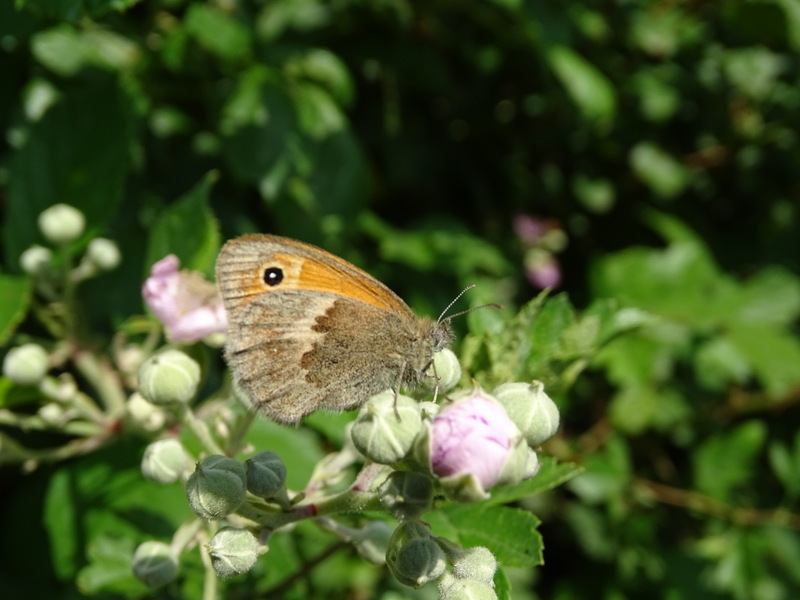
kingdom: Animalia
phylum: Arthropoda
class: Insecta
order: Lepidoptera
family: Nymphalidae
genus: Coenonympha
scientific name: Coenonympha pamphilus
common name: Small heath
